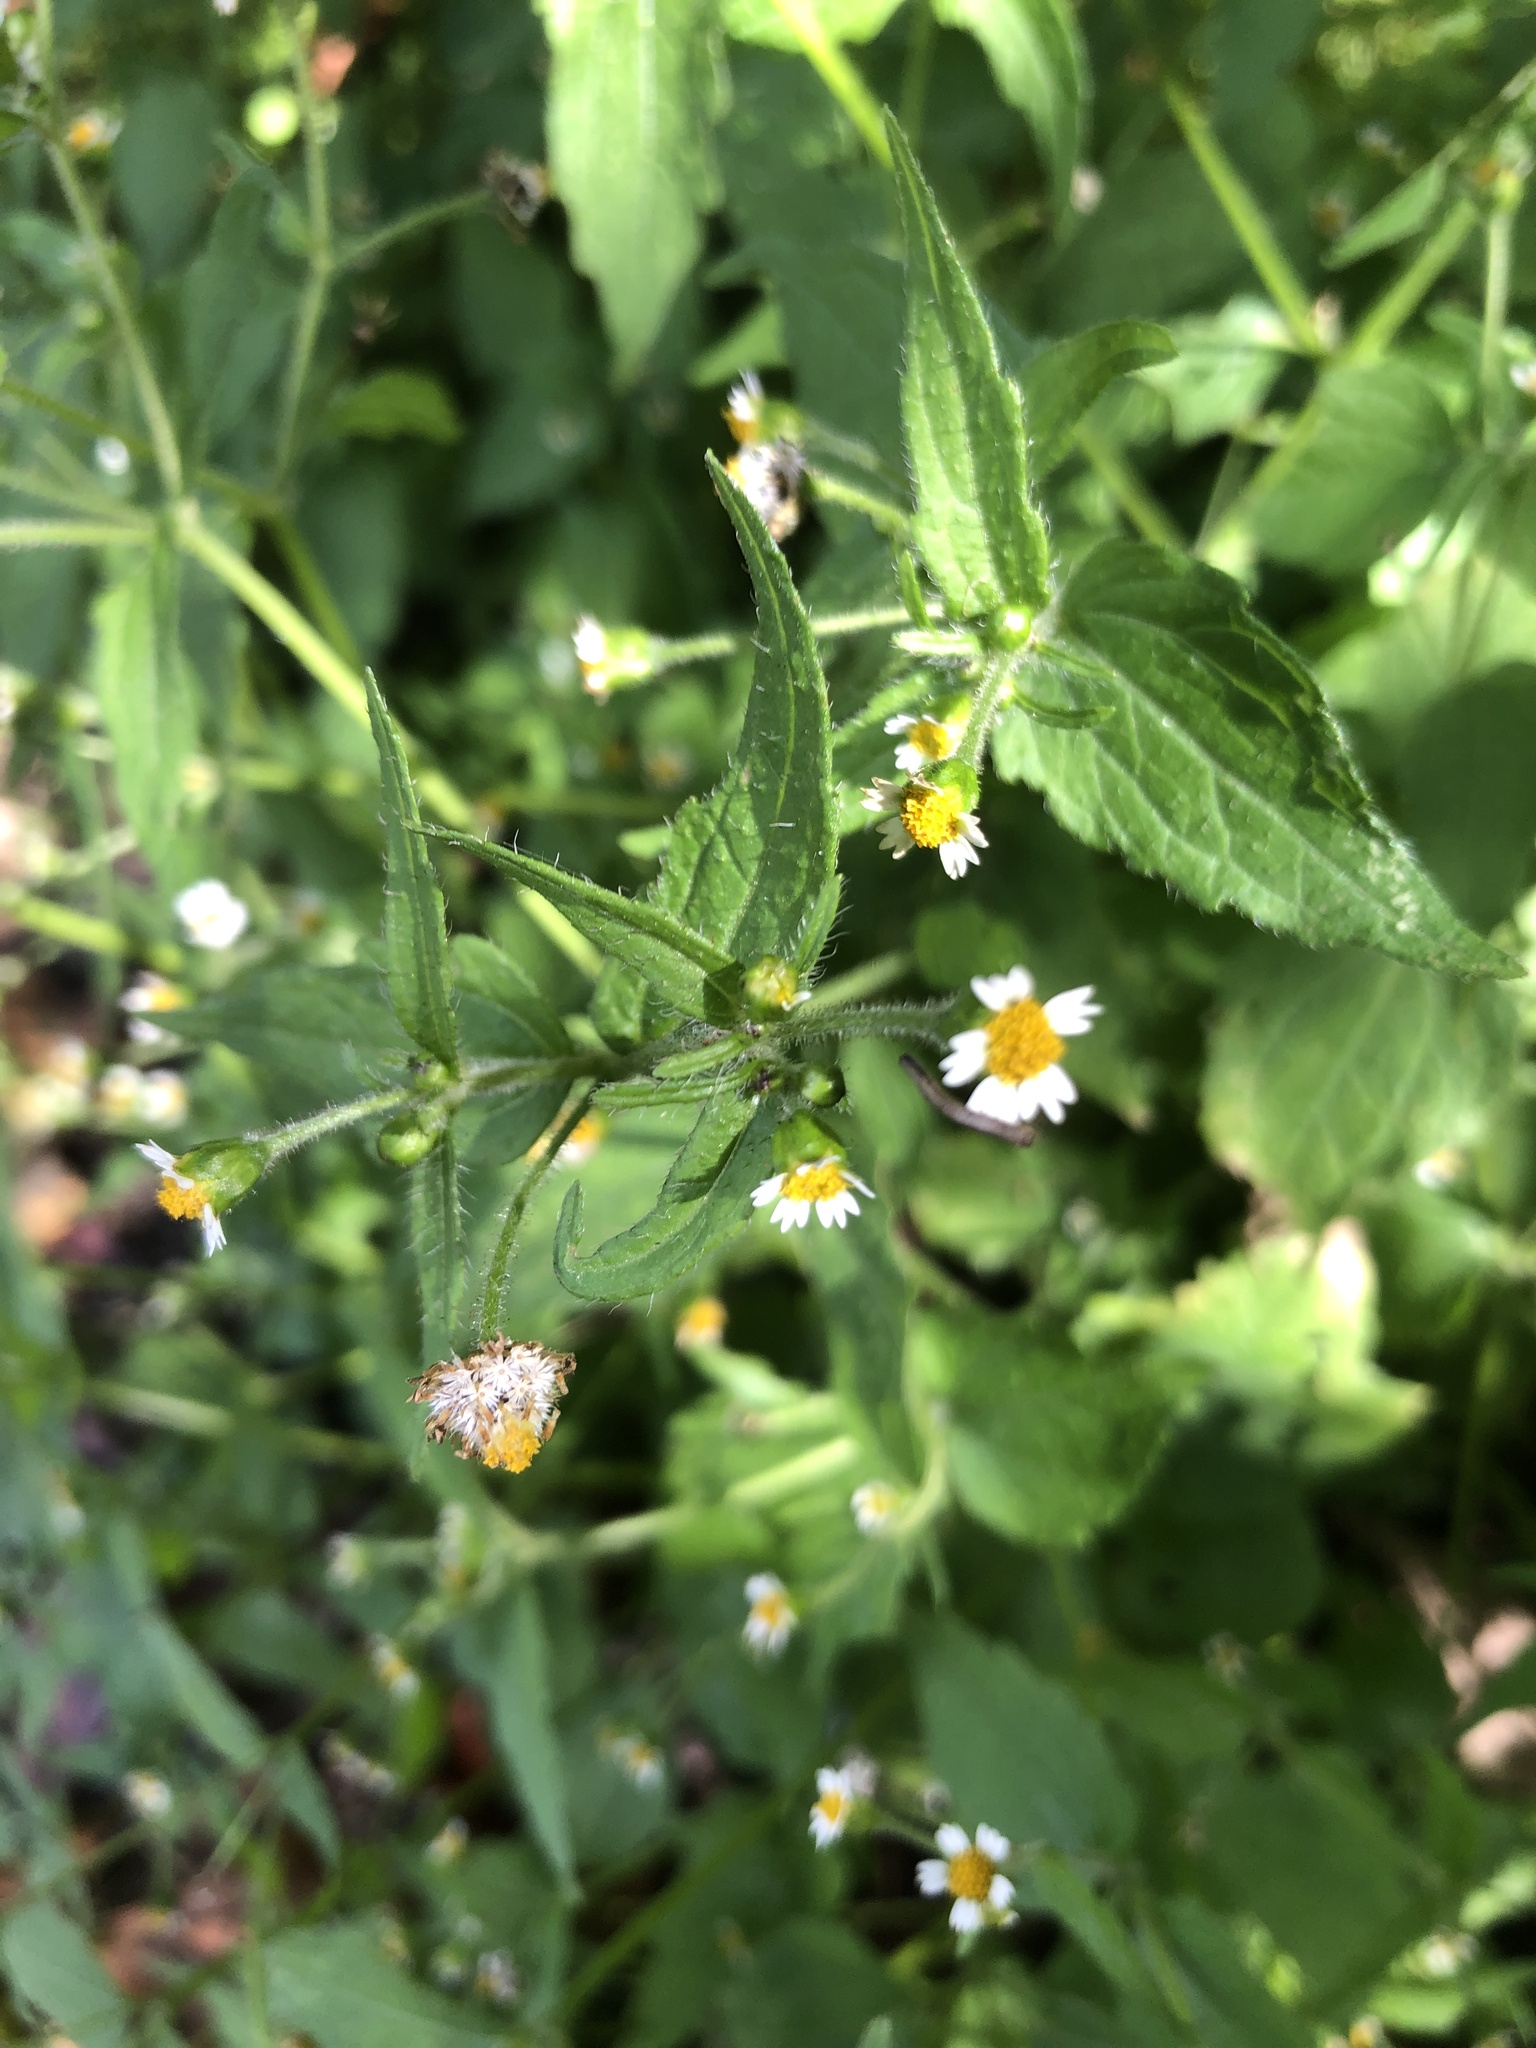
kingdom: Plantae
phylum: Tracheophyta
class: Magnoliopsida
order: Asterales
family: Asteraceae
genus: Galinsoga
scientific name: Galinsoga quadriradiata
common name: Shaggy soldier
